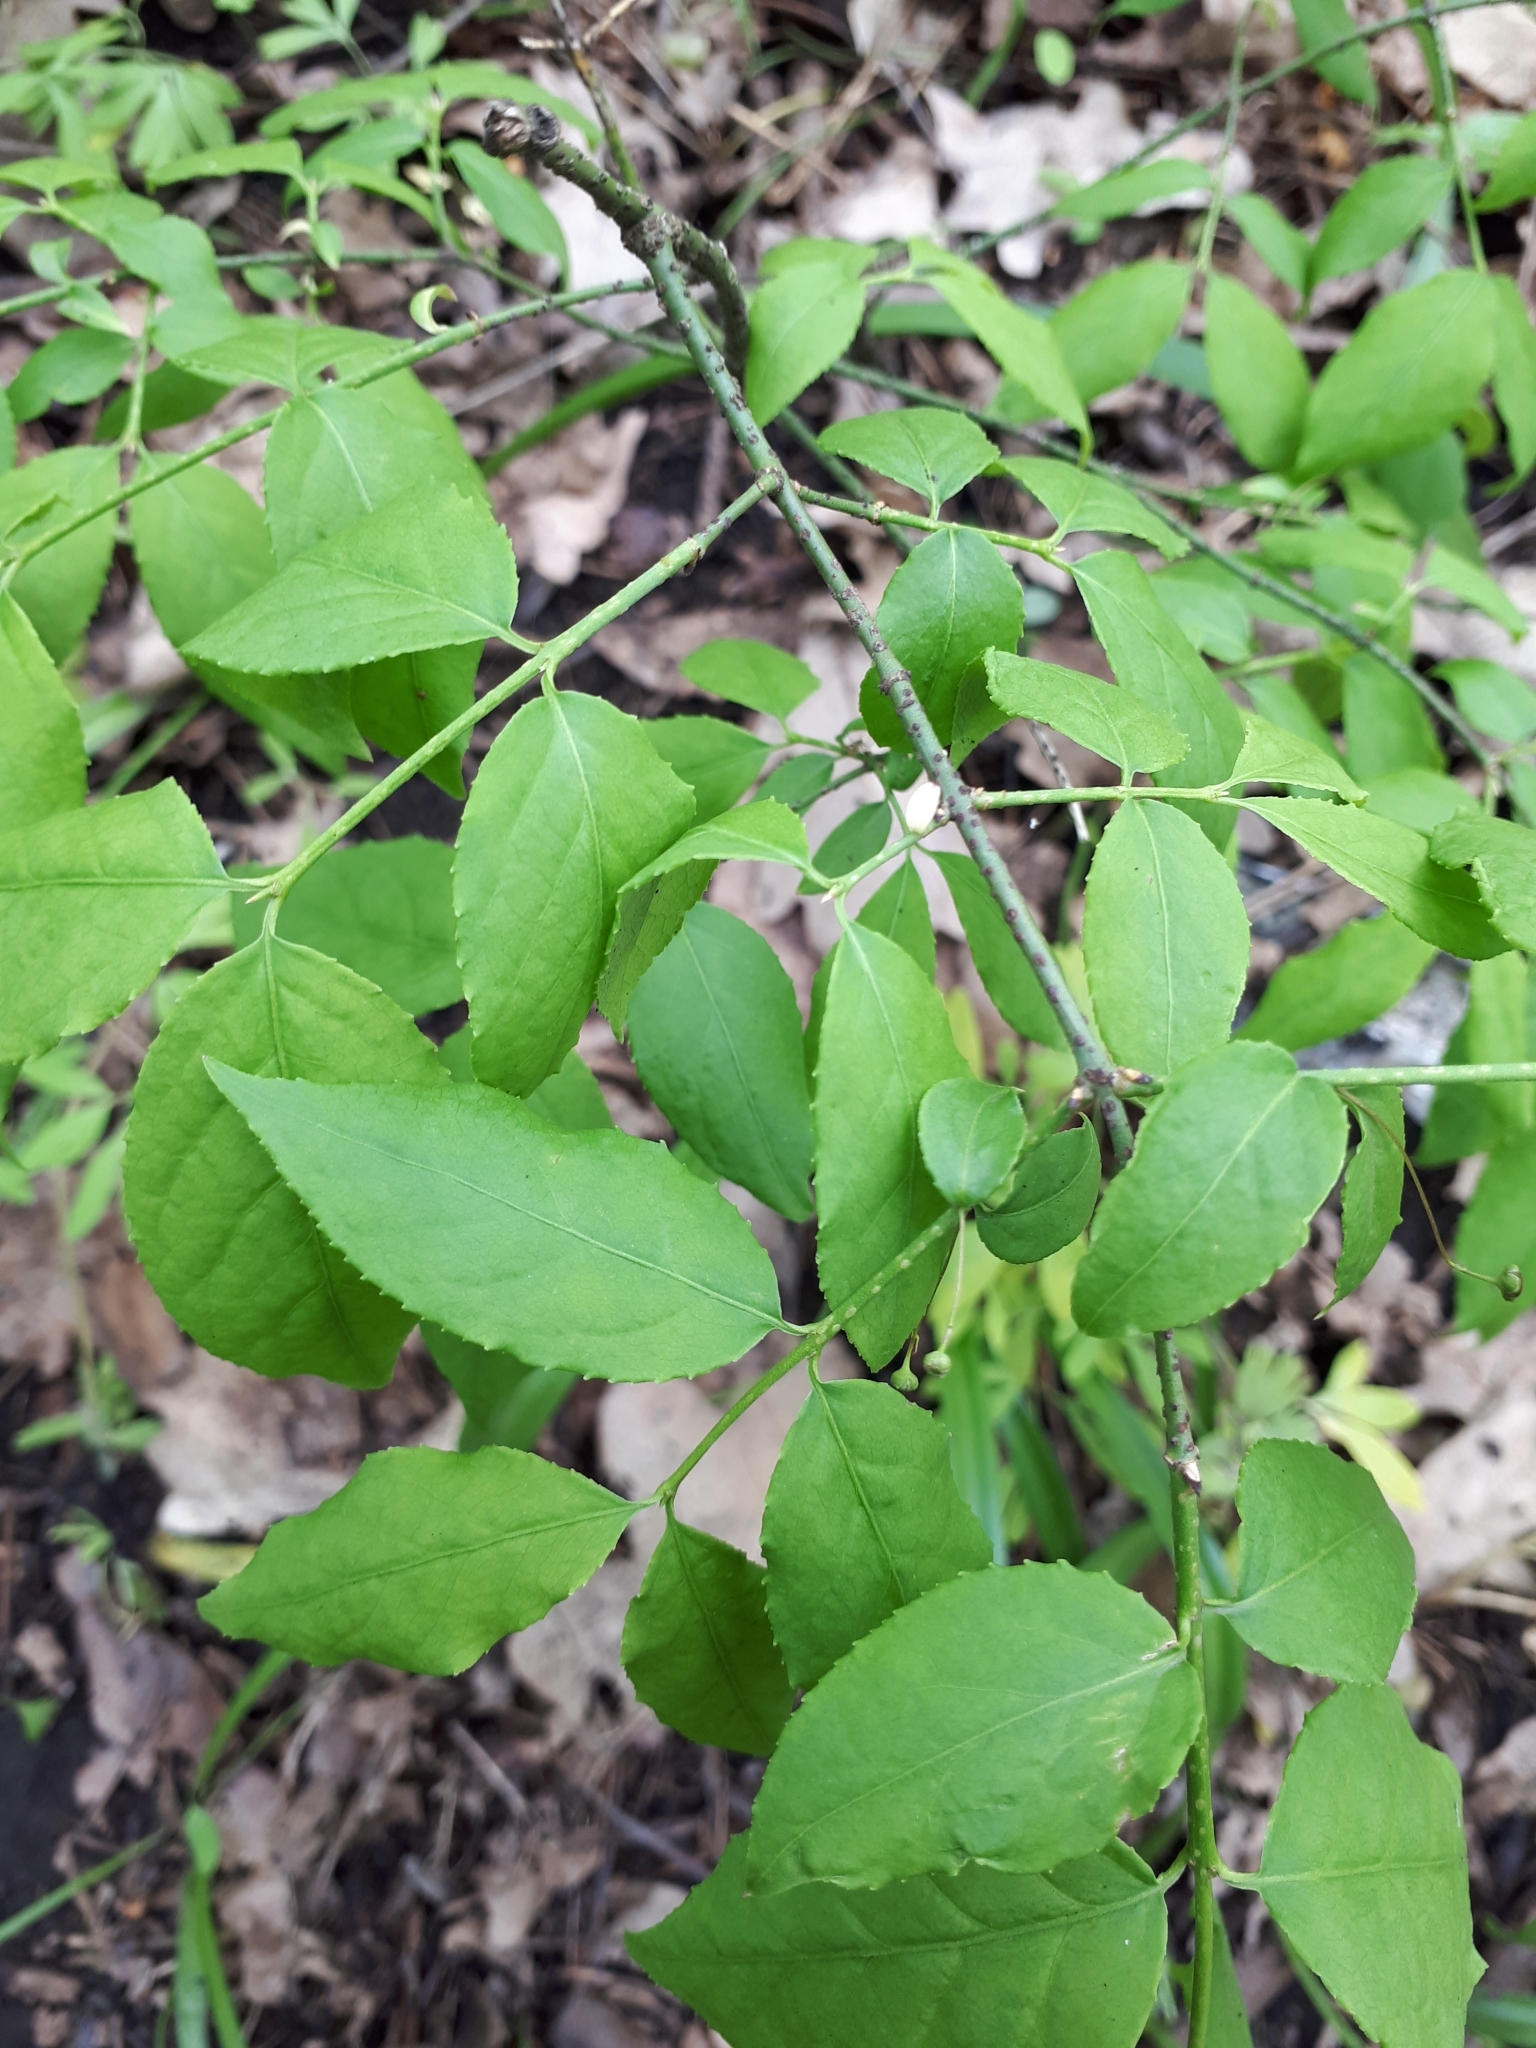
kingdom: Plantae
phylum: Tracheophyta
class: Magnoliopsida
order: Celastrales
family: Celastraceae
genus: Euonymus
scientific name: Euonymus verrucosus
